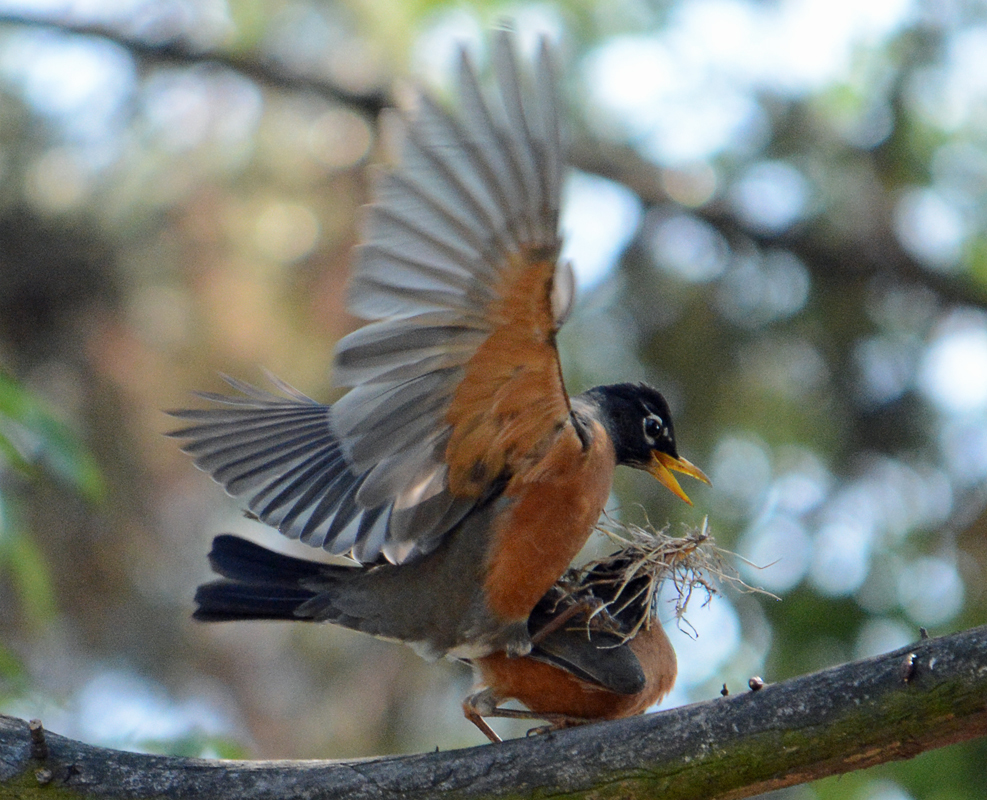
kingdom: Animalia
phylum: Chordata
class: Aves
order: Passeriformes
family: Turdidae
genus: Turdus
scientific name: Turdus migratorius
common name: American robin
